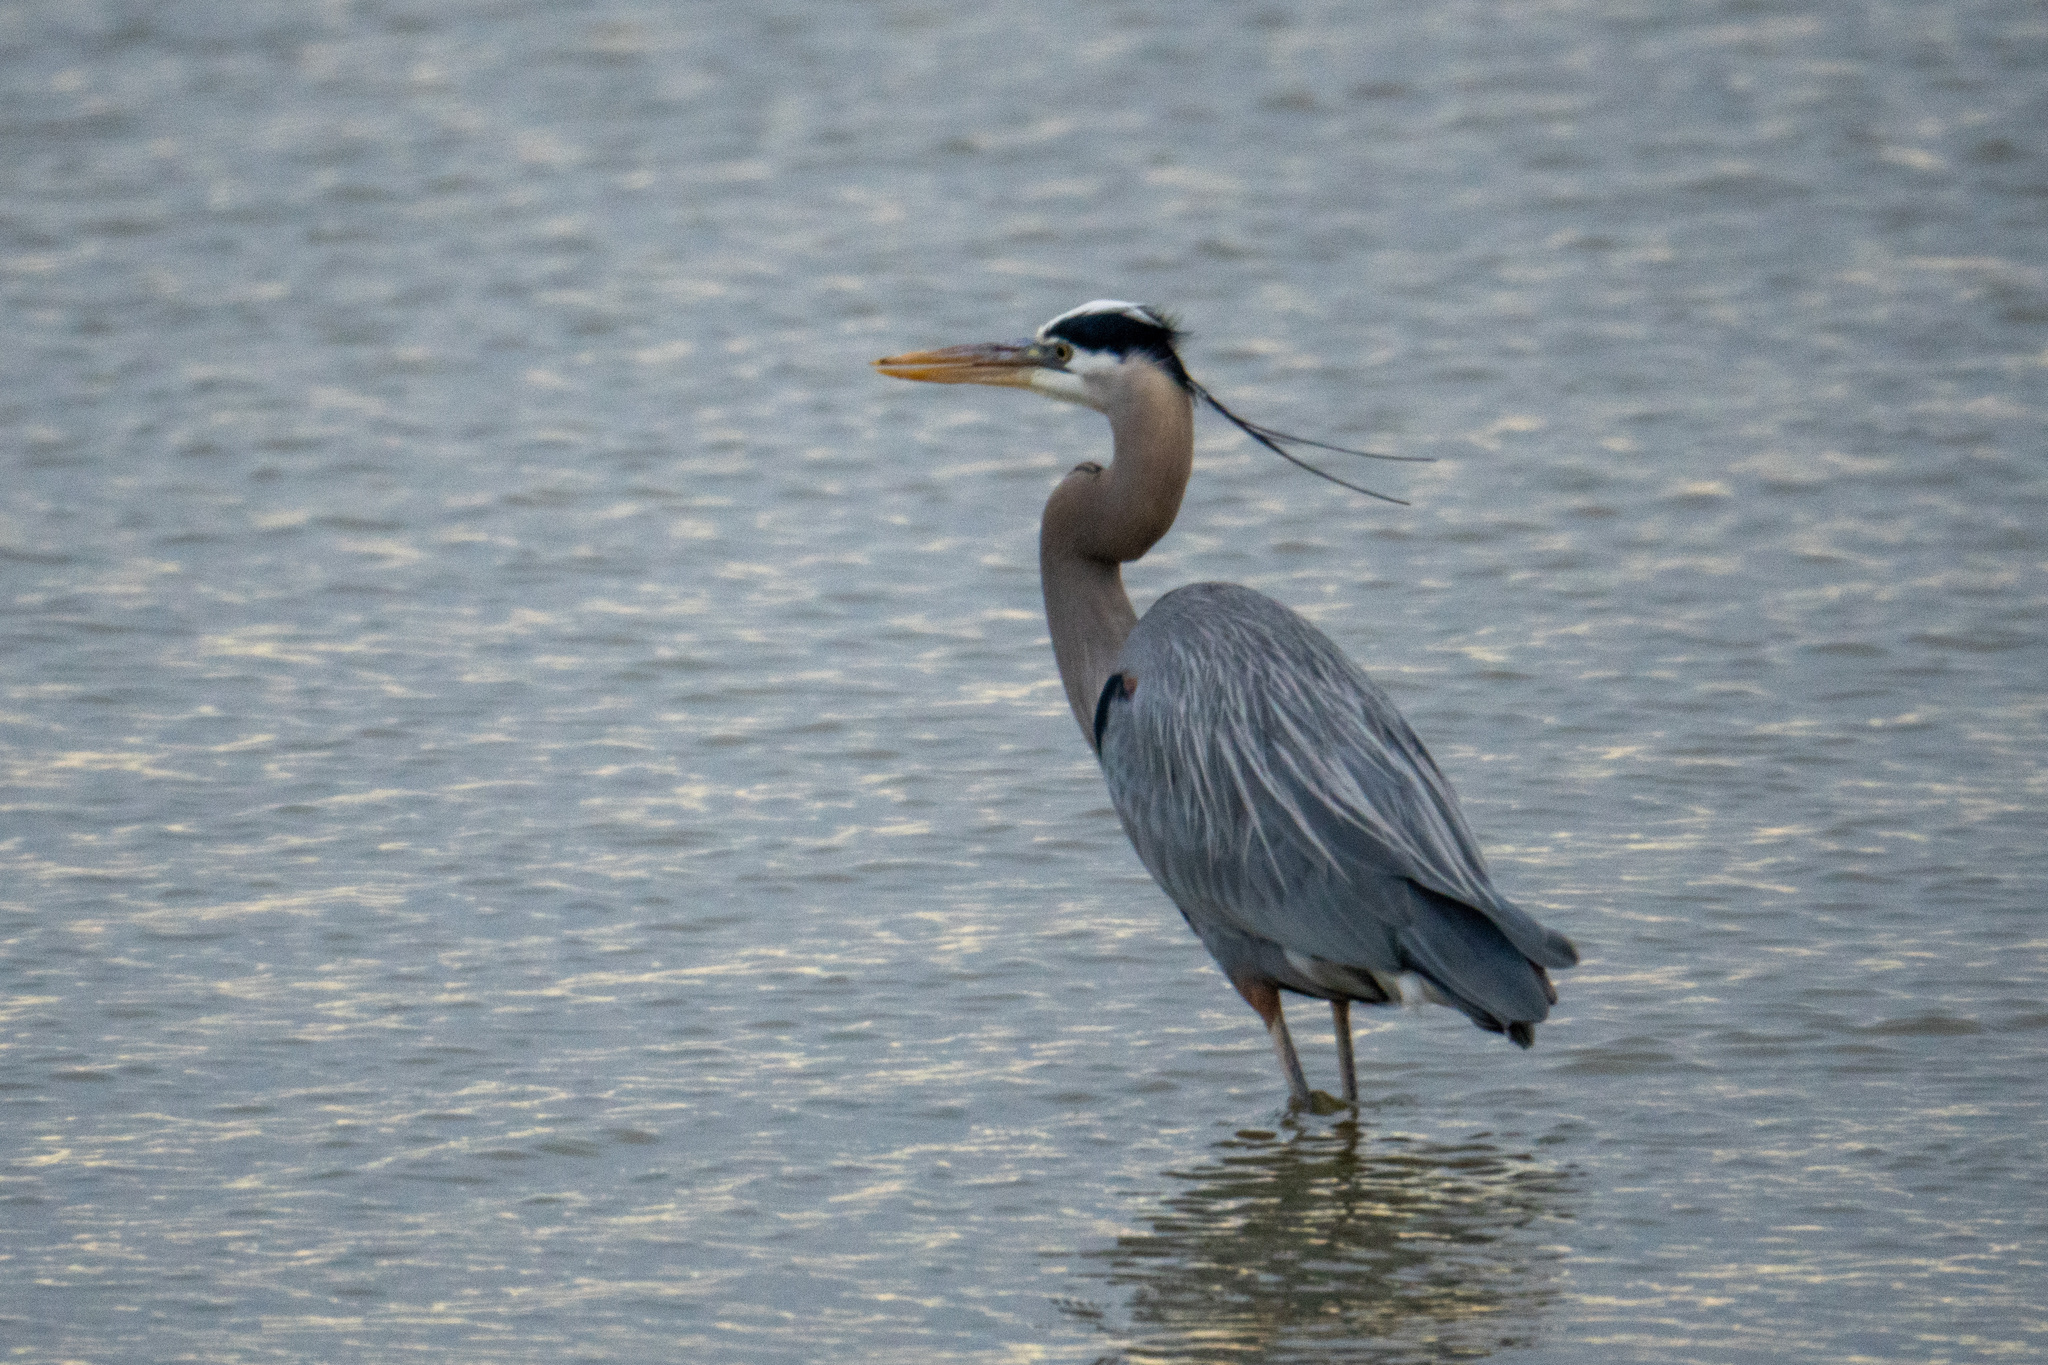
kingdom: Animalia
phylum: Chordata
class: Aves
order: Pelecaniformes
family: Ardeidae
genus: Ardea
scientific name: Ardea herodias
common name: Great blue heron
